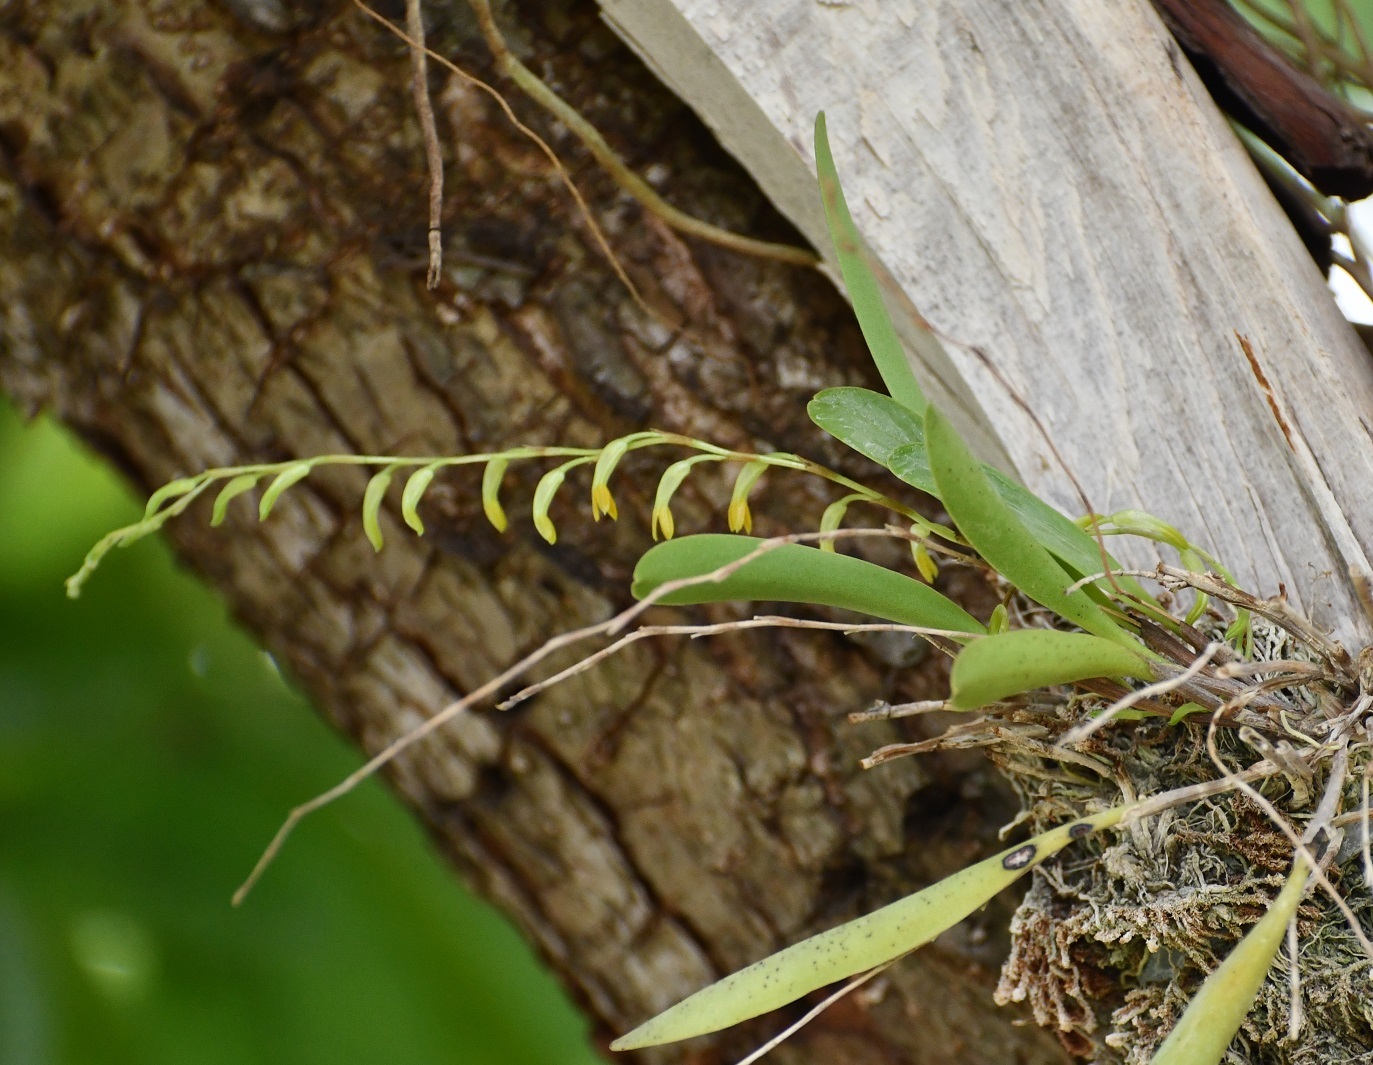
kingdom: Plantae
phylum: Tracheophyta
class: Liliopsida
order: Asparagales
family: Orchidaceae
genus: Stelis
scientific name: Stelis greenwoodii
